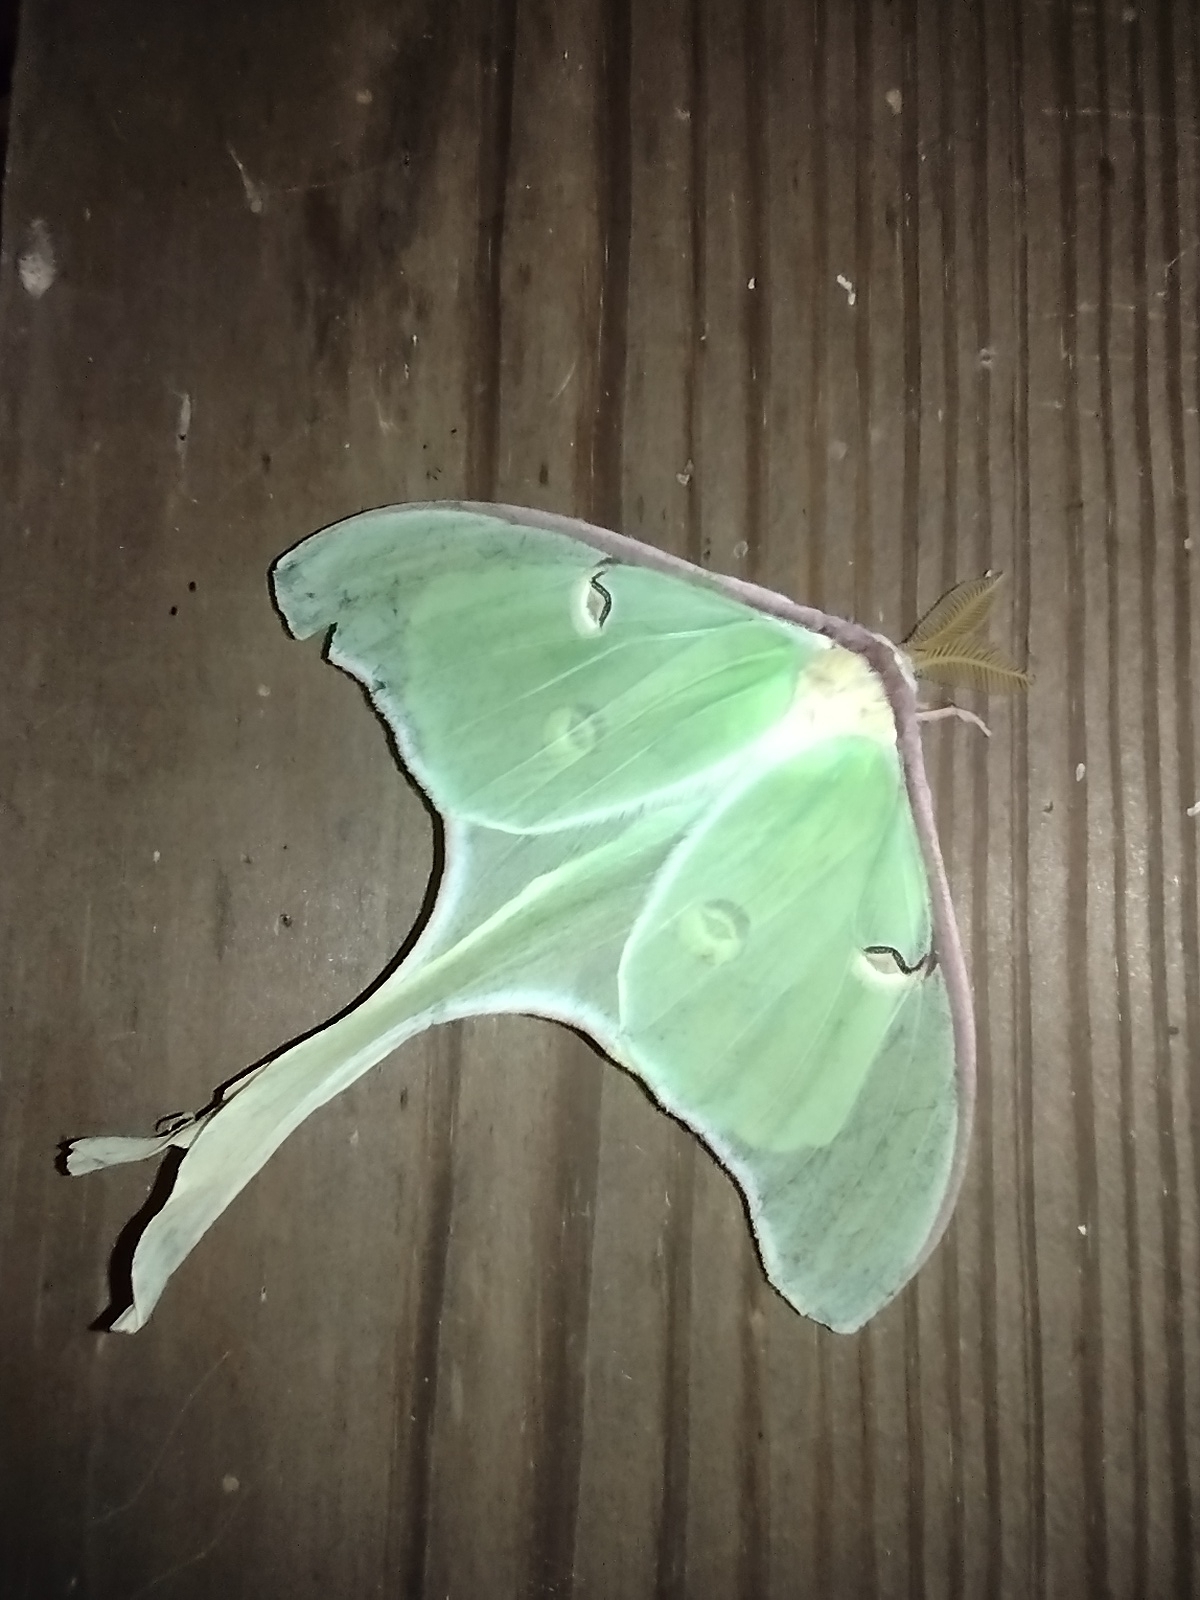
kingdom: Animalia
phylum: Arthropoda
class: Insecta
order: Lepidoptera
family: Saturniidae
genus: Actias
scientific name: Actias luna
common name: Luna moth
